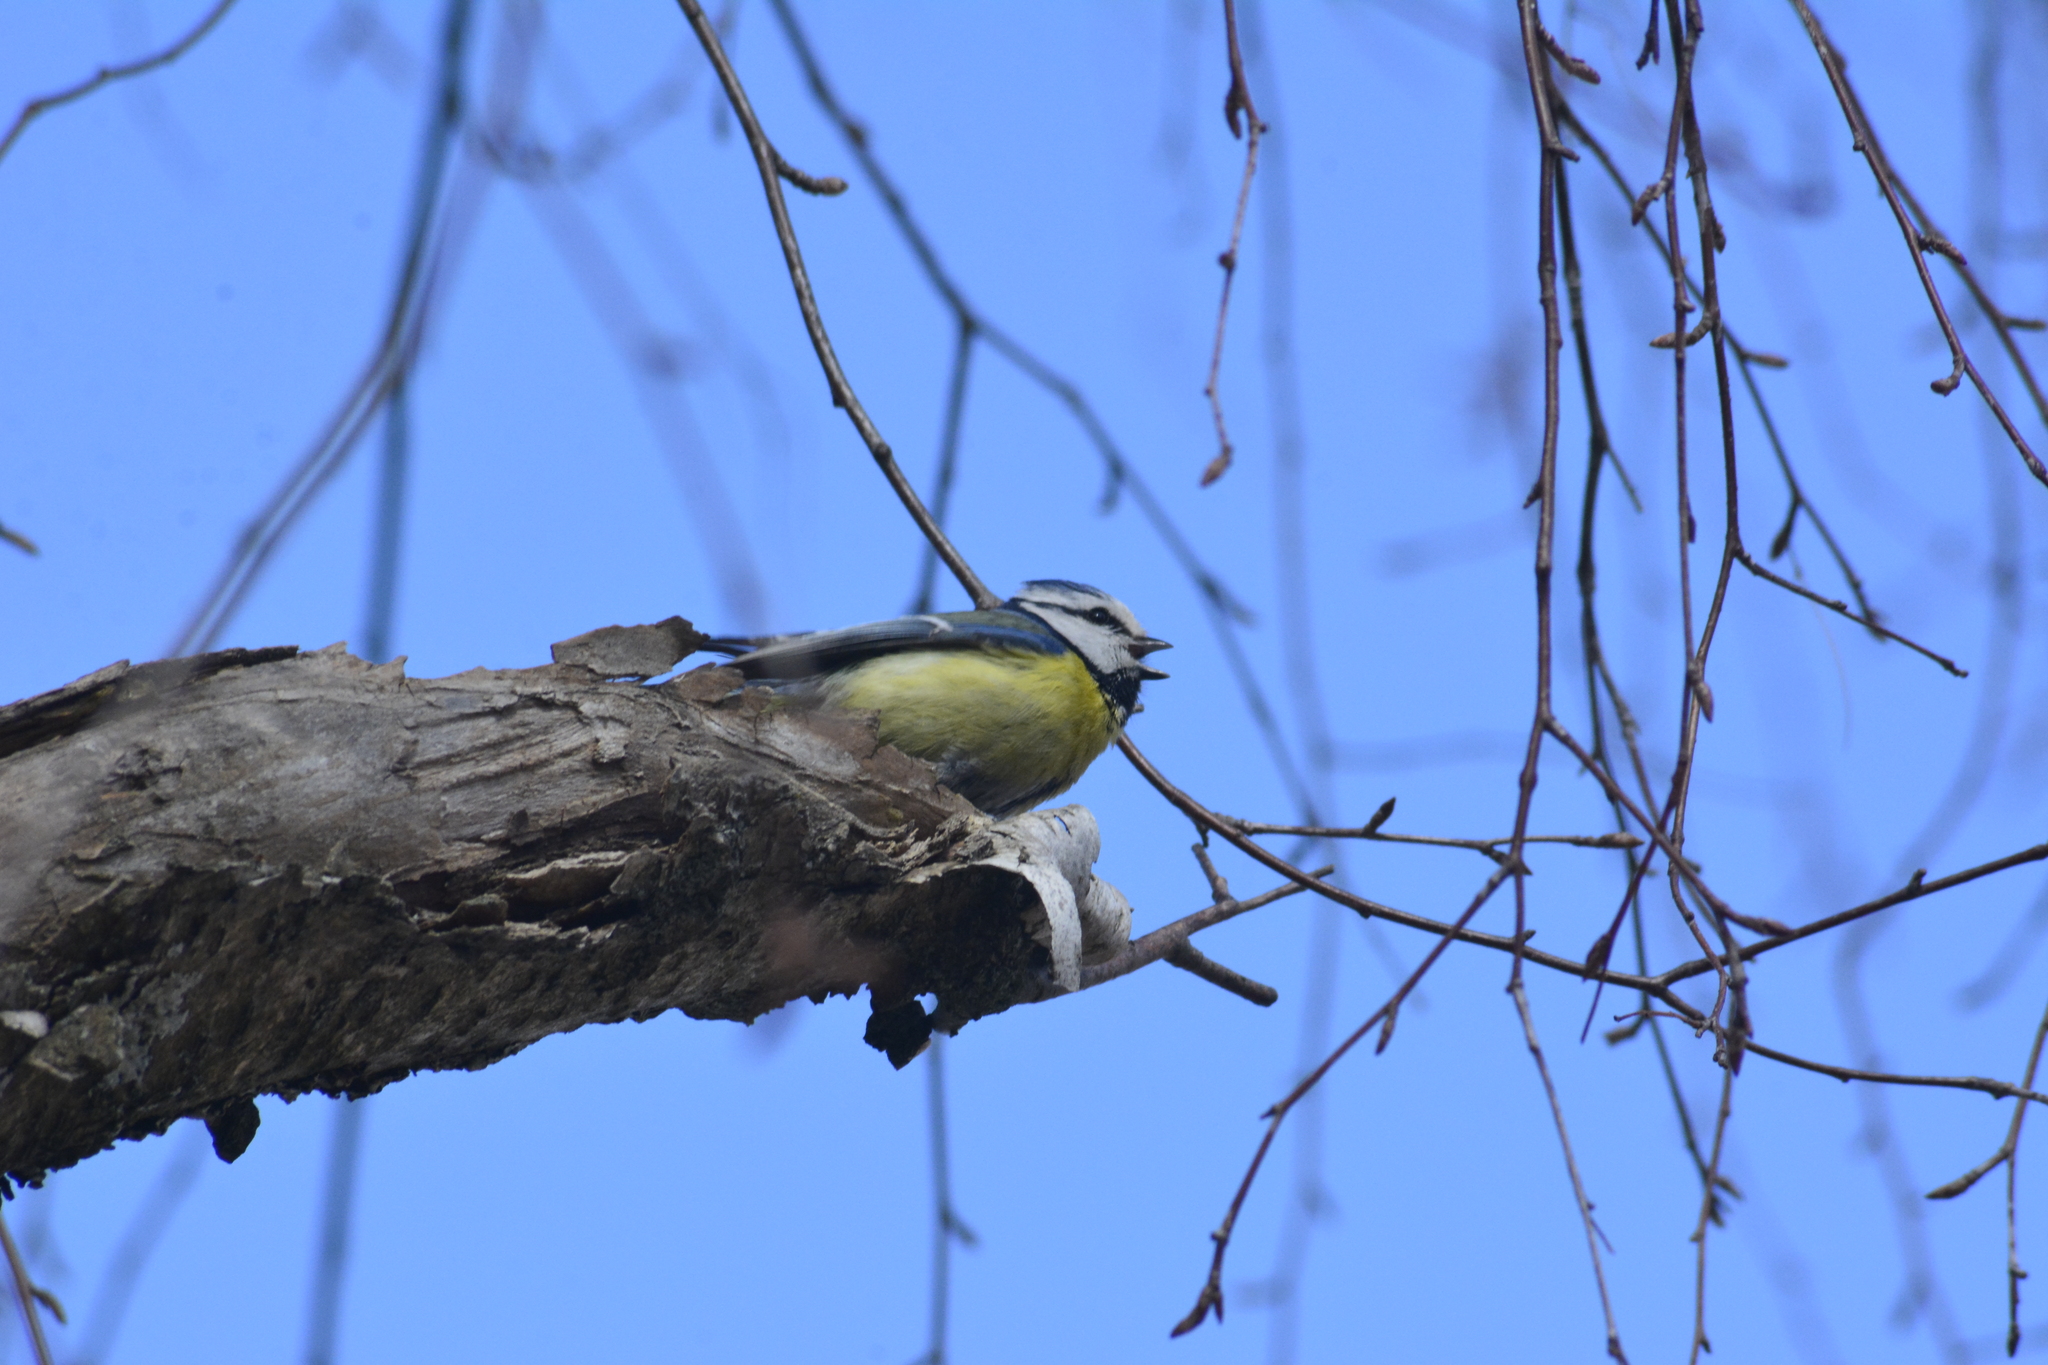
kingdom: Animalia
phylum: Chordata
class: Aves
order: Passeriformes
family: Paridae
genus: Cyanistes
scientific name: Cyanistes caeruleus
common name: Eurasian blue tit
